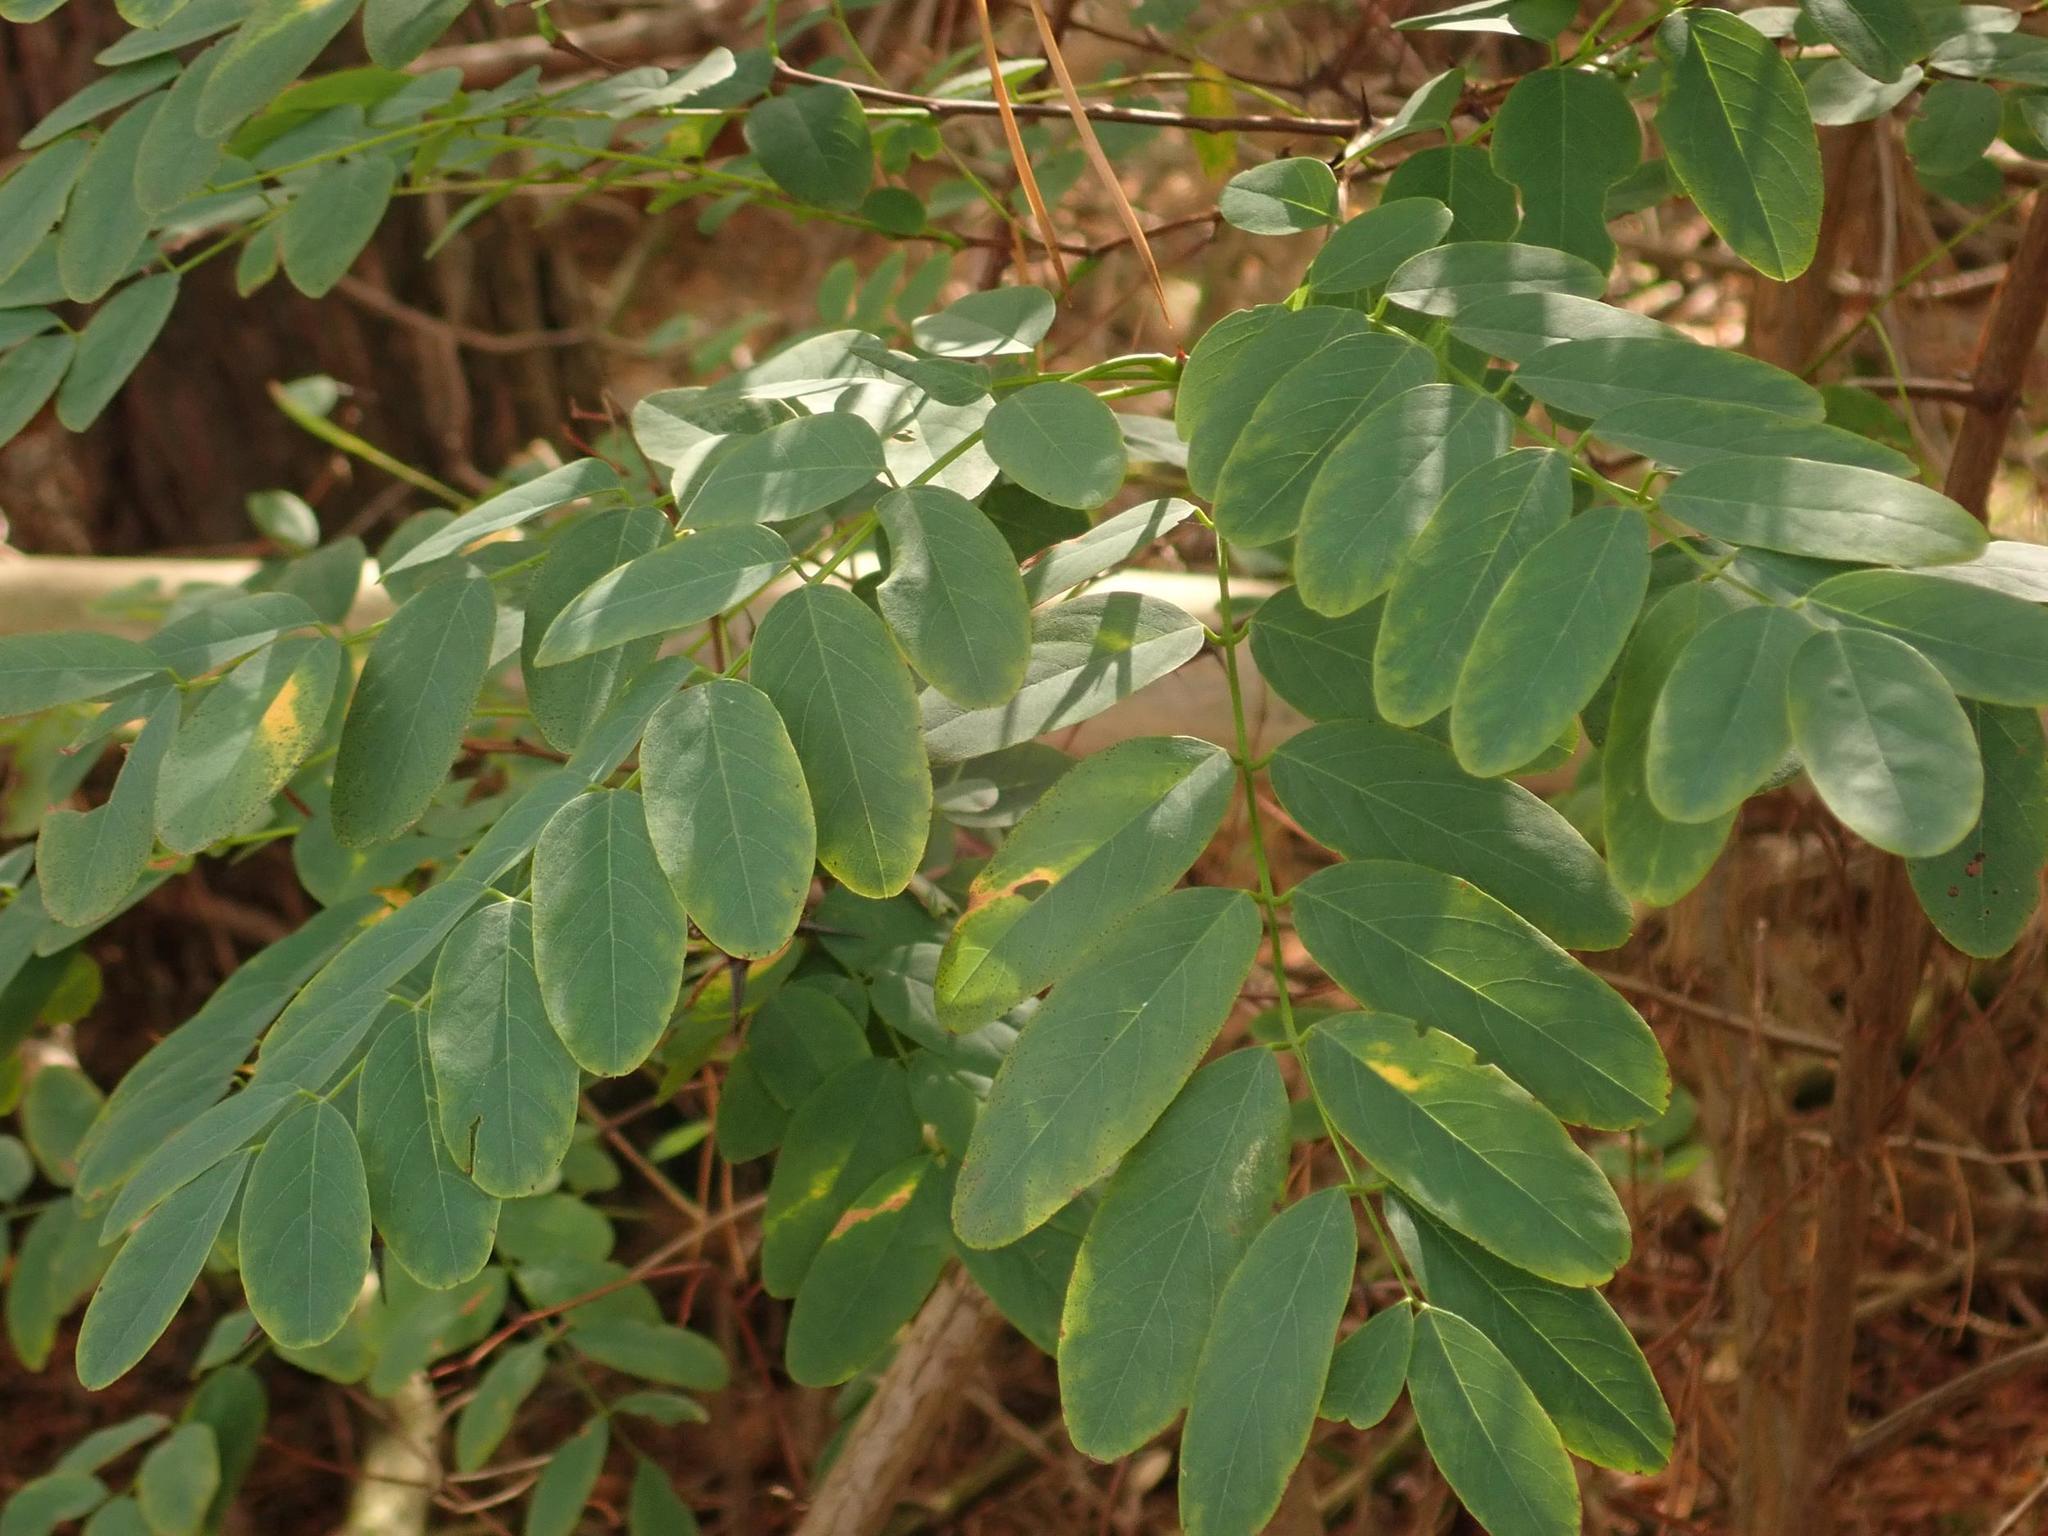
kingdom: Plantae
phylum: Tracheophyta
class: Magnoliopsida
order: Fabales
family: Fabaceae
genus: Robinia
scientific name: Robinia pseudoacacia
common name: Black locust
